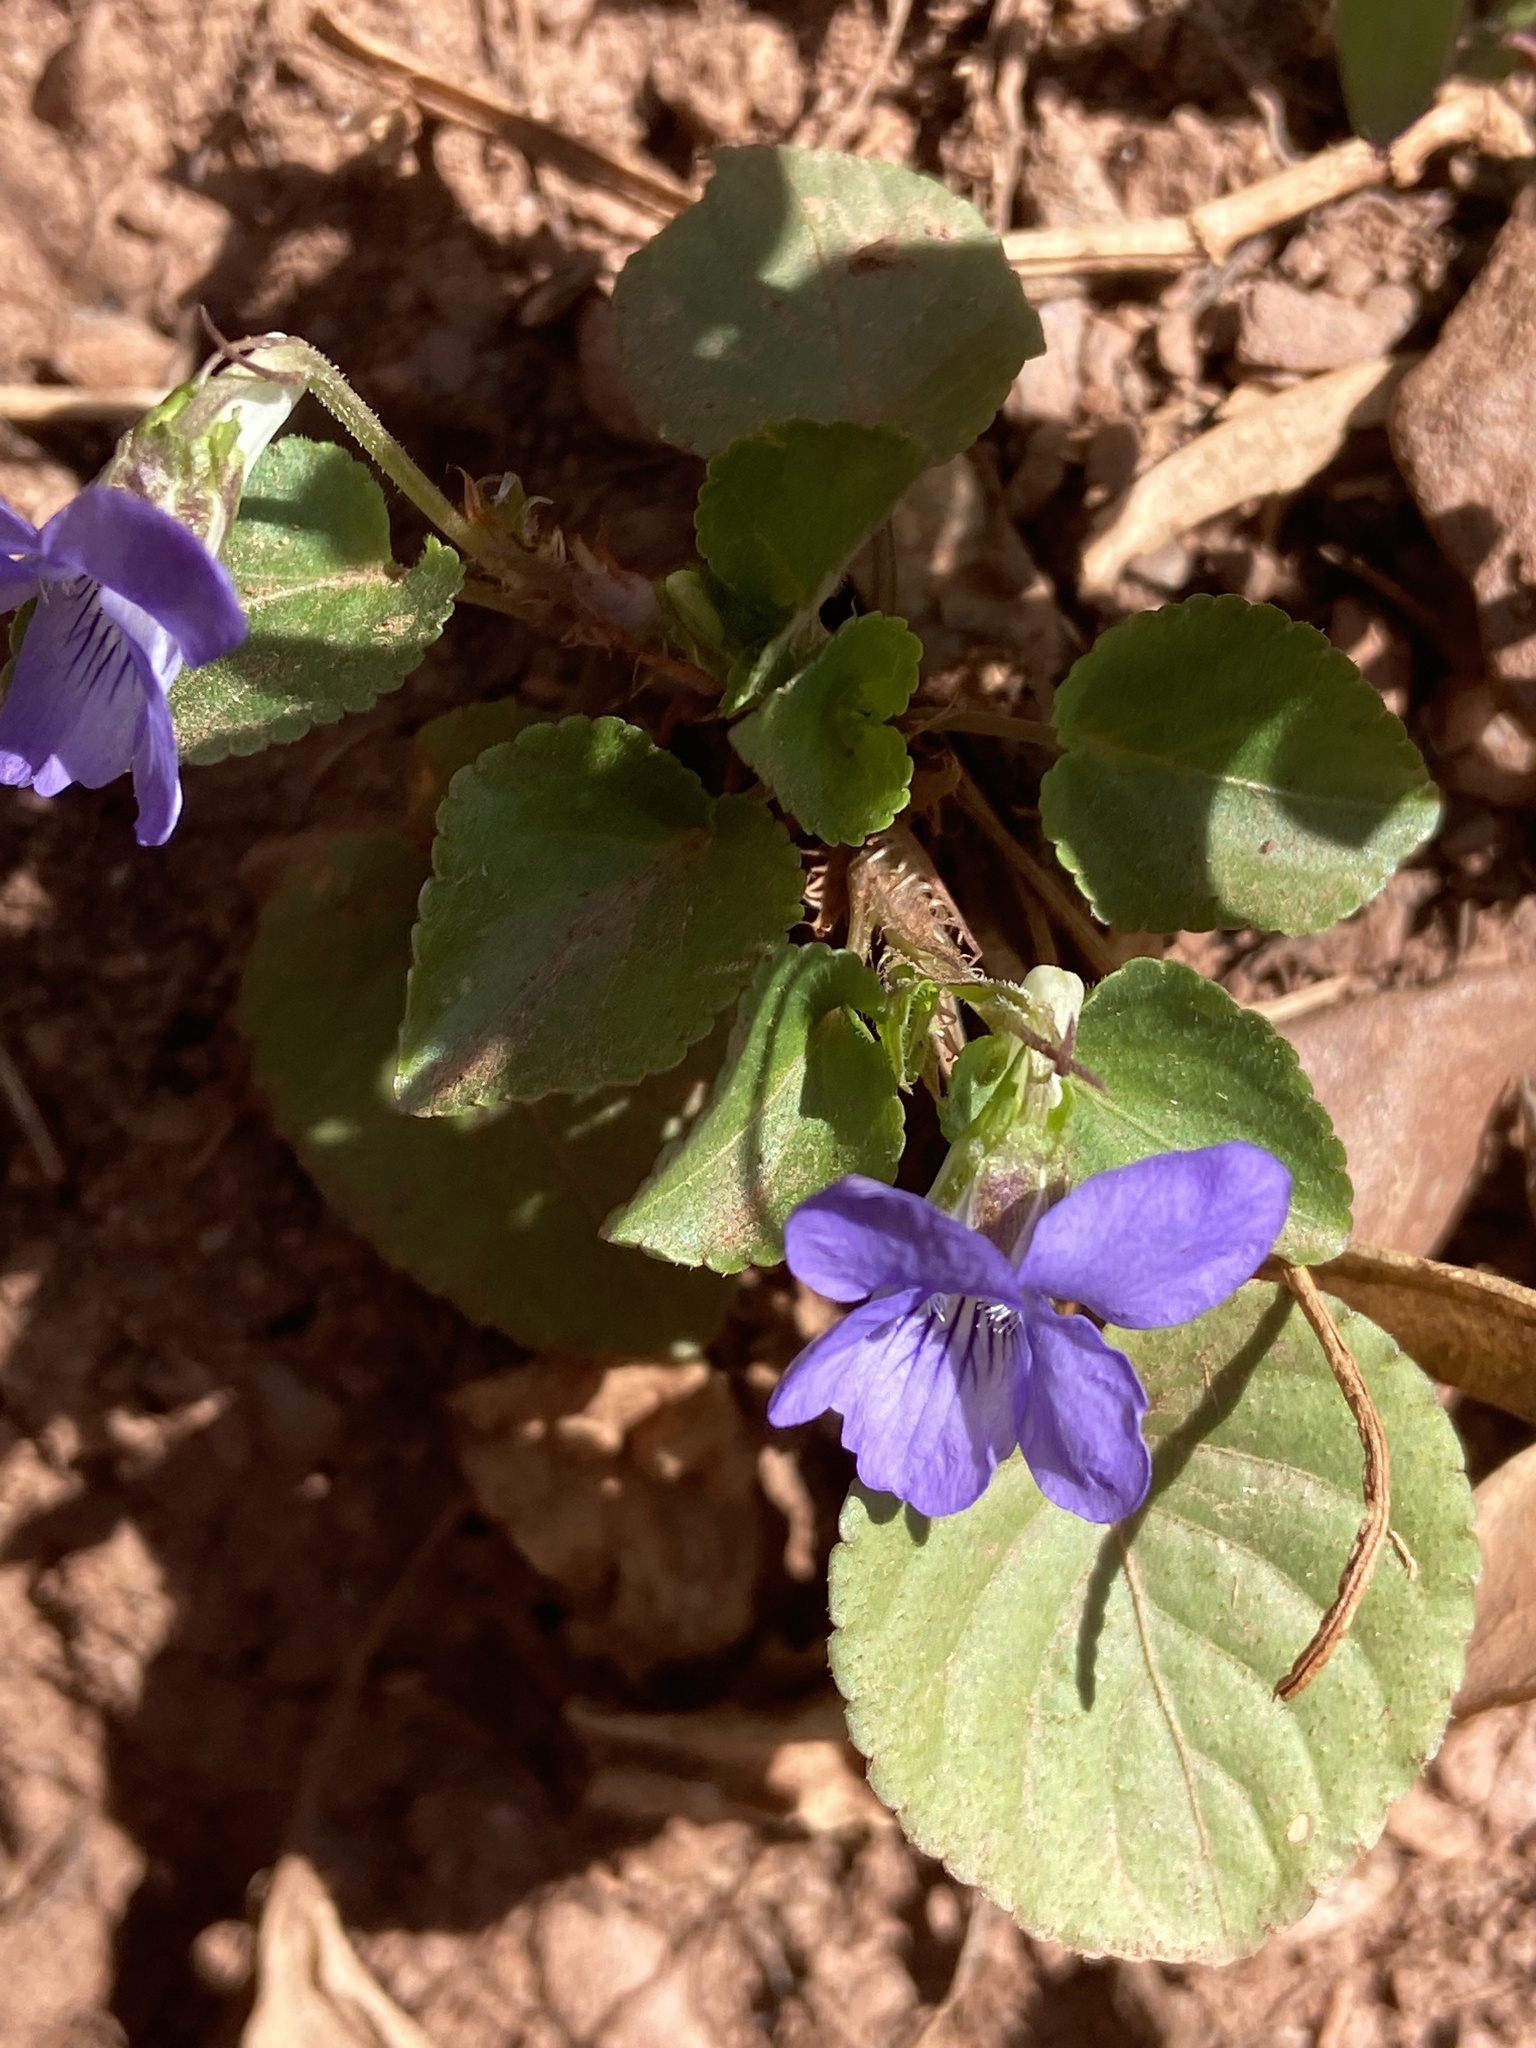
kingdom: Plantae
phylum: Tracheophyta
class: Magnoliopsida
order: Malpighiales
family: Violaceae
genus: Viola
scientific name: Viola riviniana
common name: Common dog-violet
